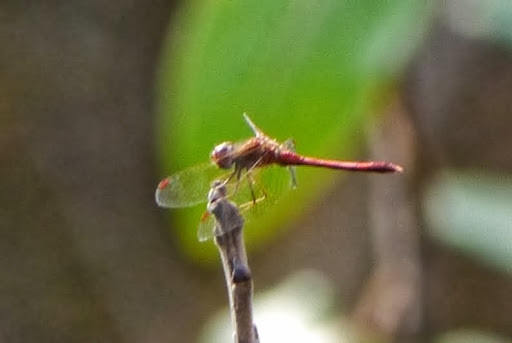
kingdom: Animalia
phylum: Arthropoda
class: Insecta
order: Odonata
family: Libellulidae
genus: Sympetrum
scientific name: Sympetrum vicinum
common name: Autumn meadowhawk
